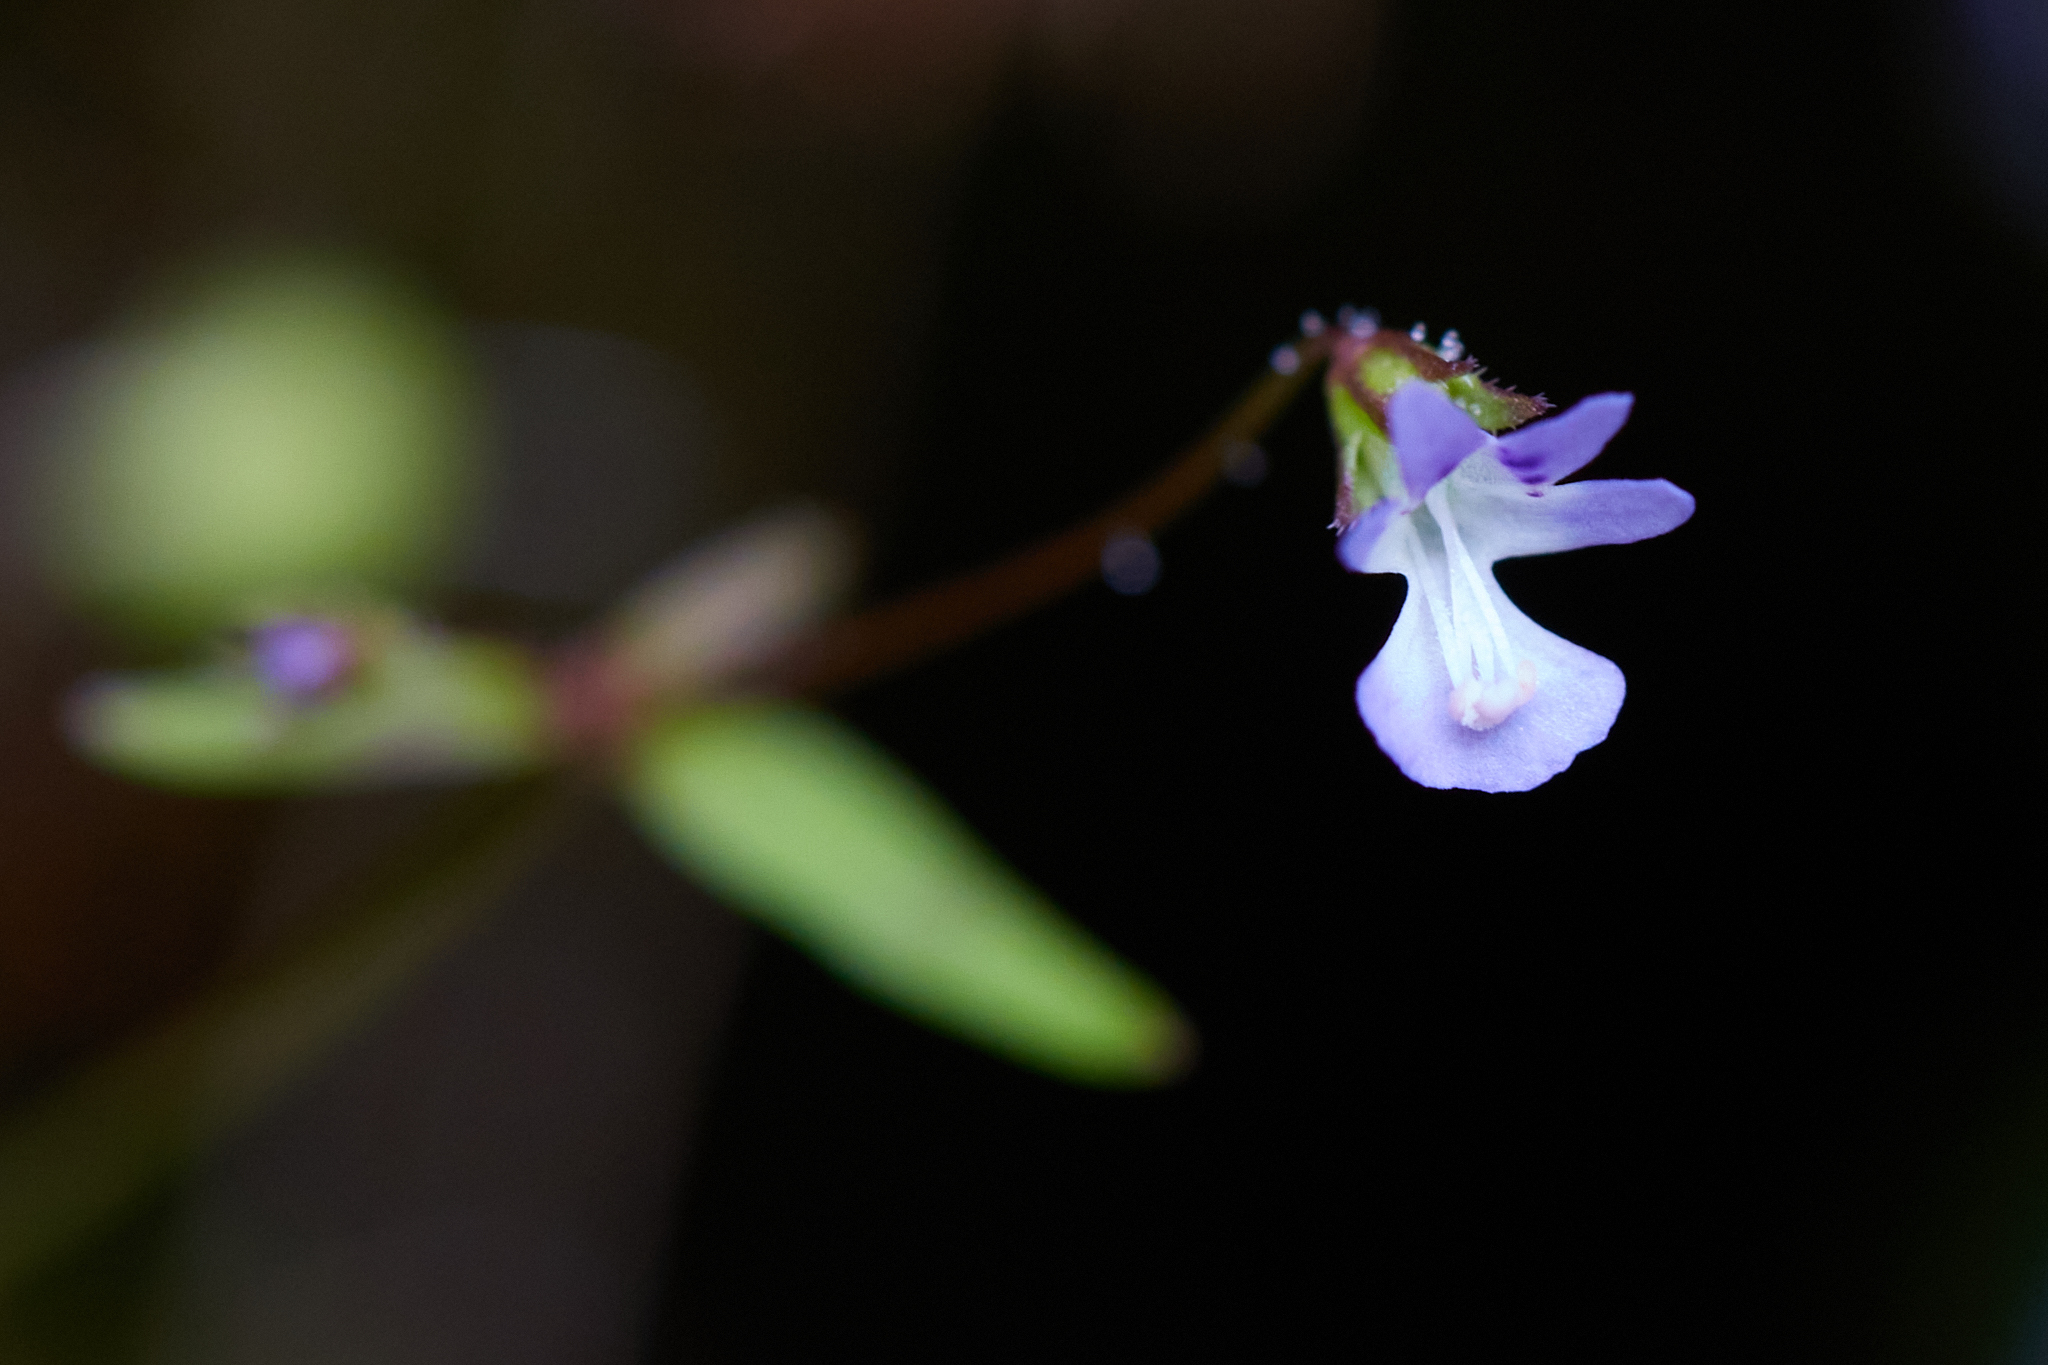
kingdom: Plantae
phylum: Tracheophyta
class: Magnoliopsida
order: Lamiales
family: Plantaginaceae
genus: Tonella
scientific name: Tonella tenella
